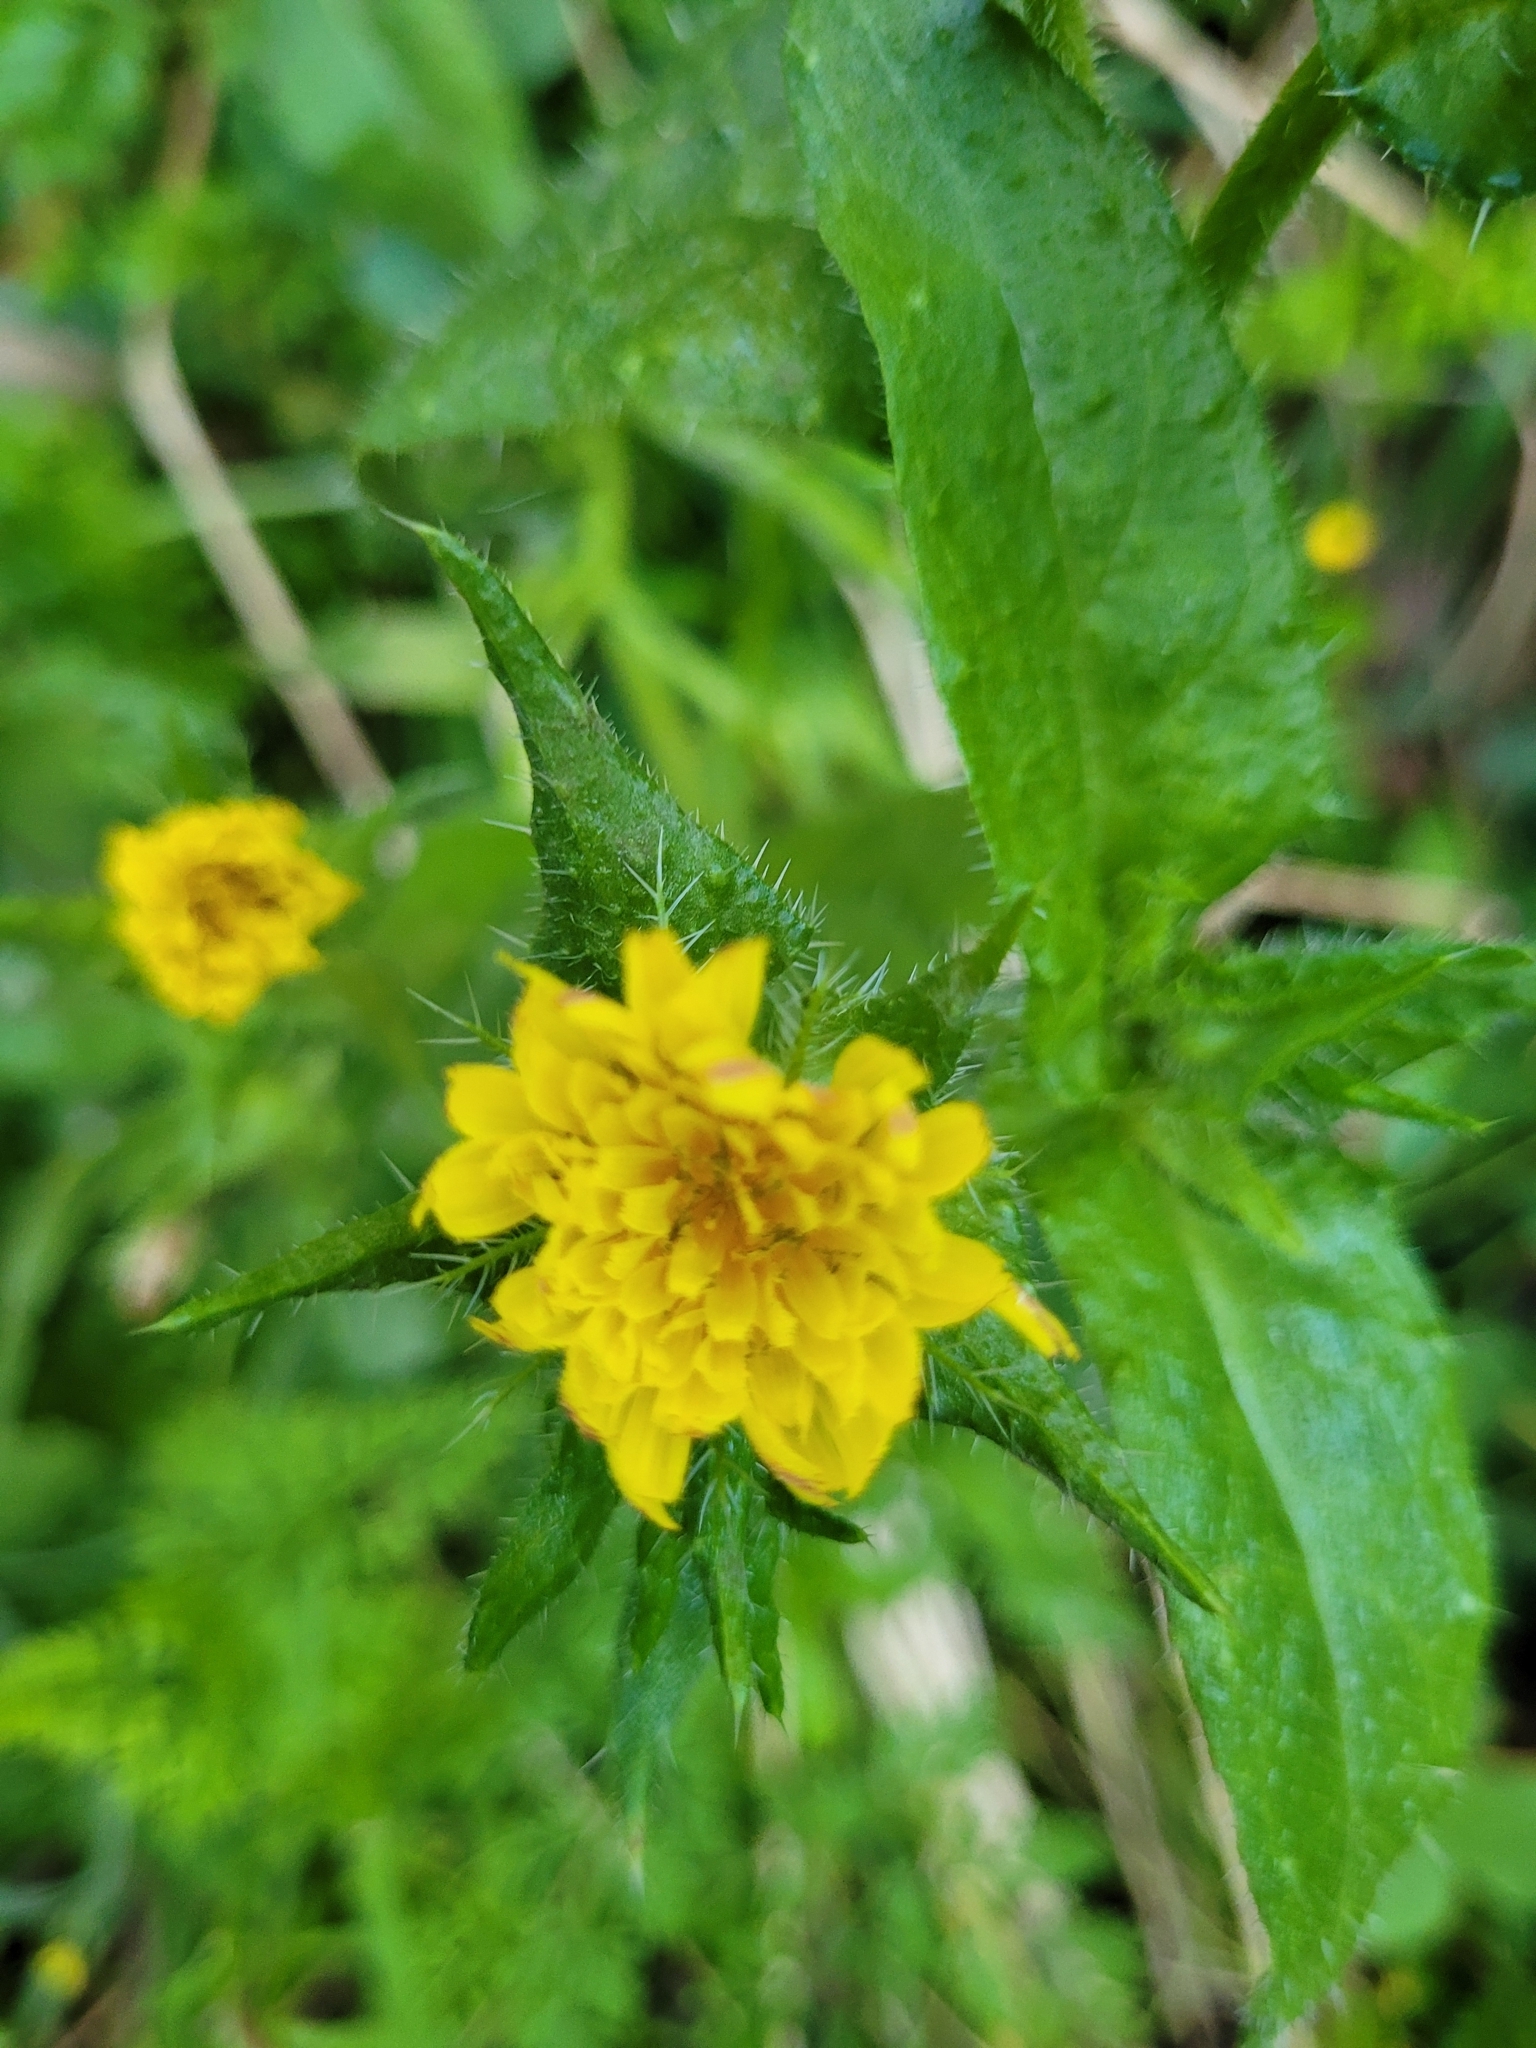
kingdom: Plantae
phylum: Tracheophyta
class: Magnoliopsida
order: Asterales
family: Asteraceae
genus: Helminthotheca
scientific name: Helminthotheca echioides
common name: Ox-tongue
